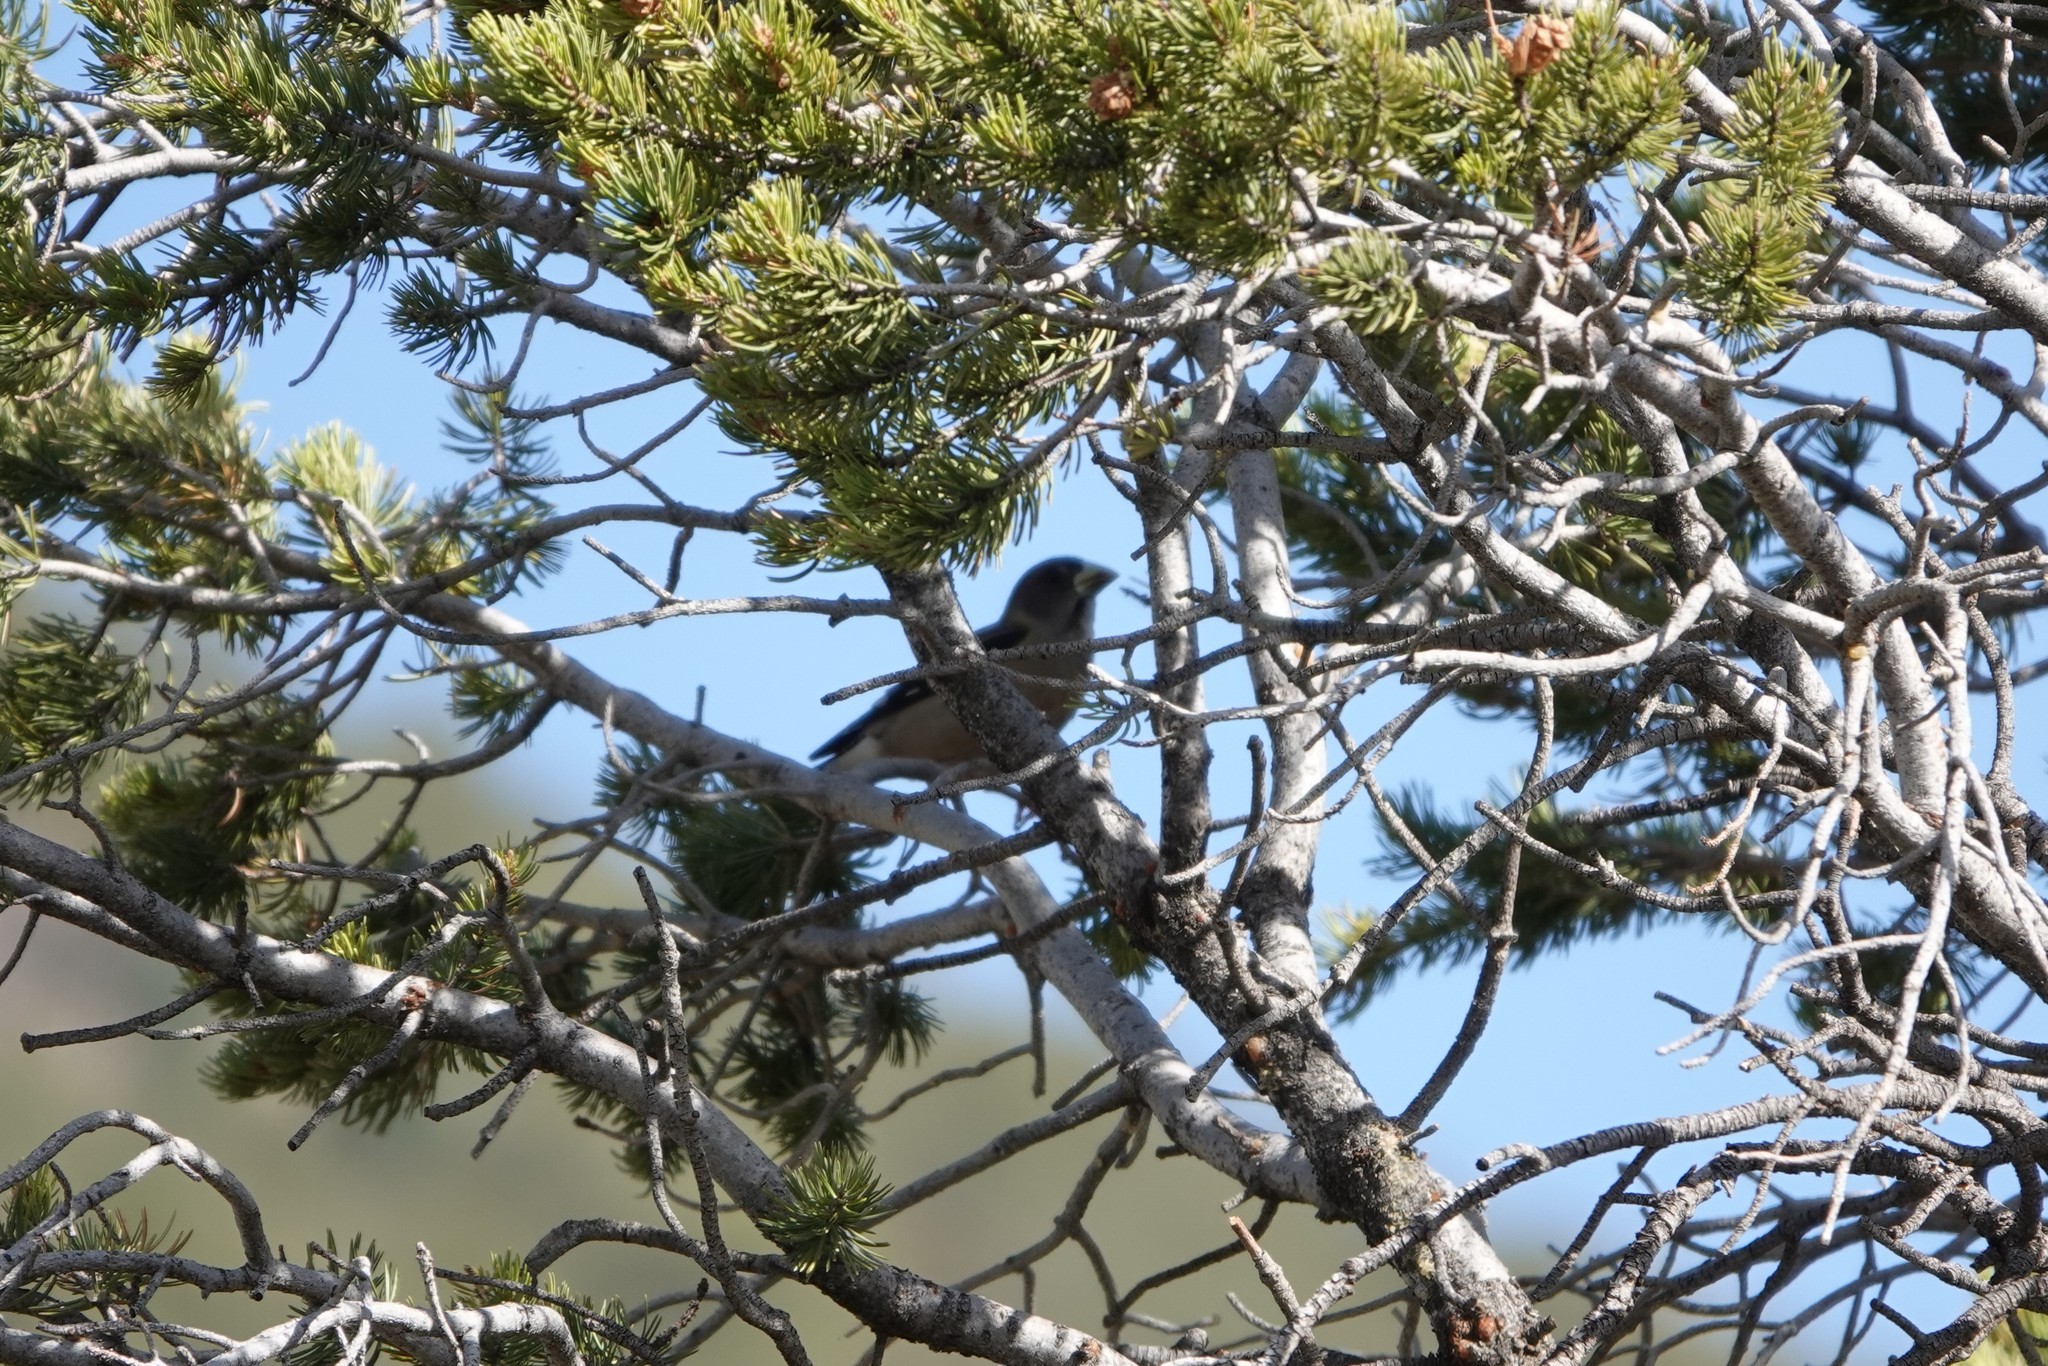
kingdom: Animalia
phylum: Chordata
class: Aves
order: Passeriformes
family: Fringillidae
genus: Hesperiphona
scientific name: Hesperiphona vespertina
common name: Evening grosbeak
